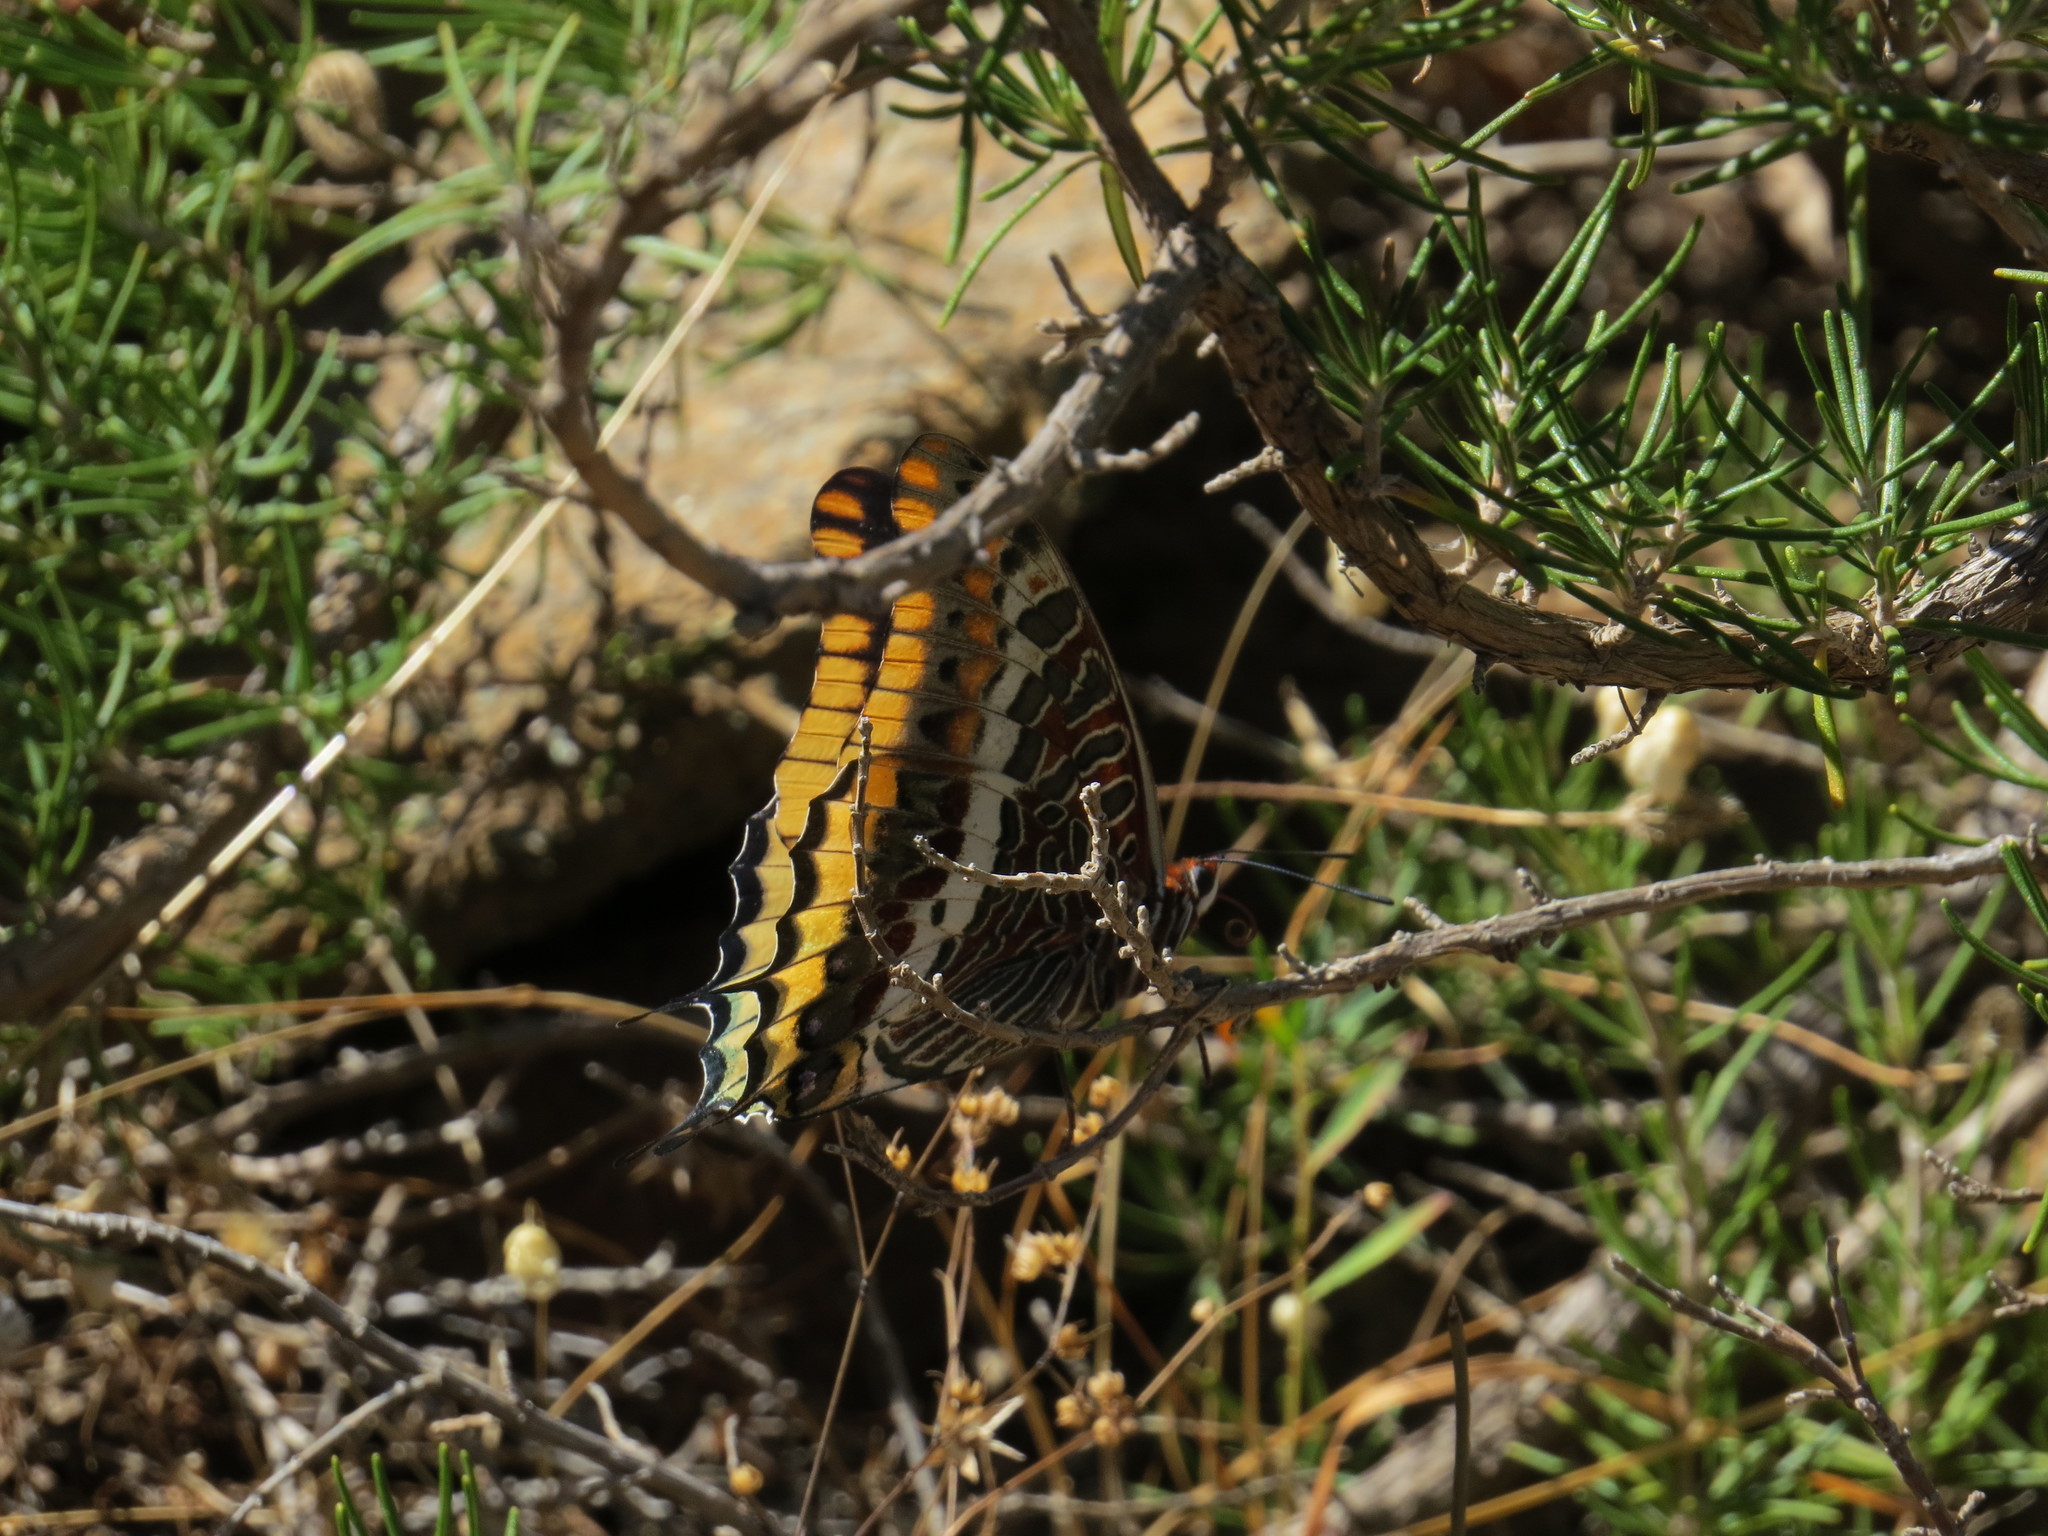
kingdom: Animalia
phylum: Arthropoda
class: Insecta
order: Lepidoptera
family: Nymphalidae
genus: Charaxes
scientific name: Charaxes jasius
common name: Two tailed pasha
